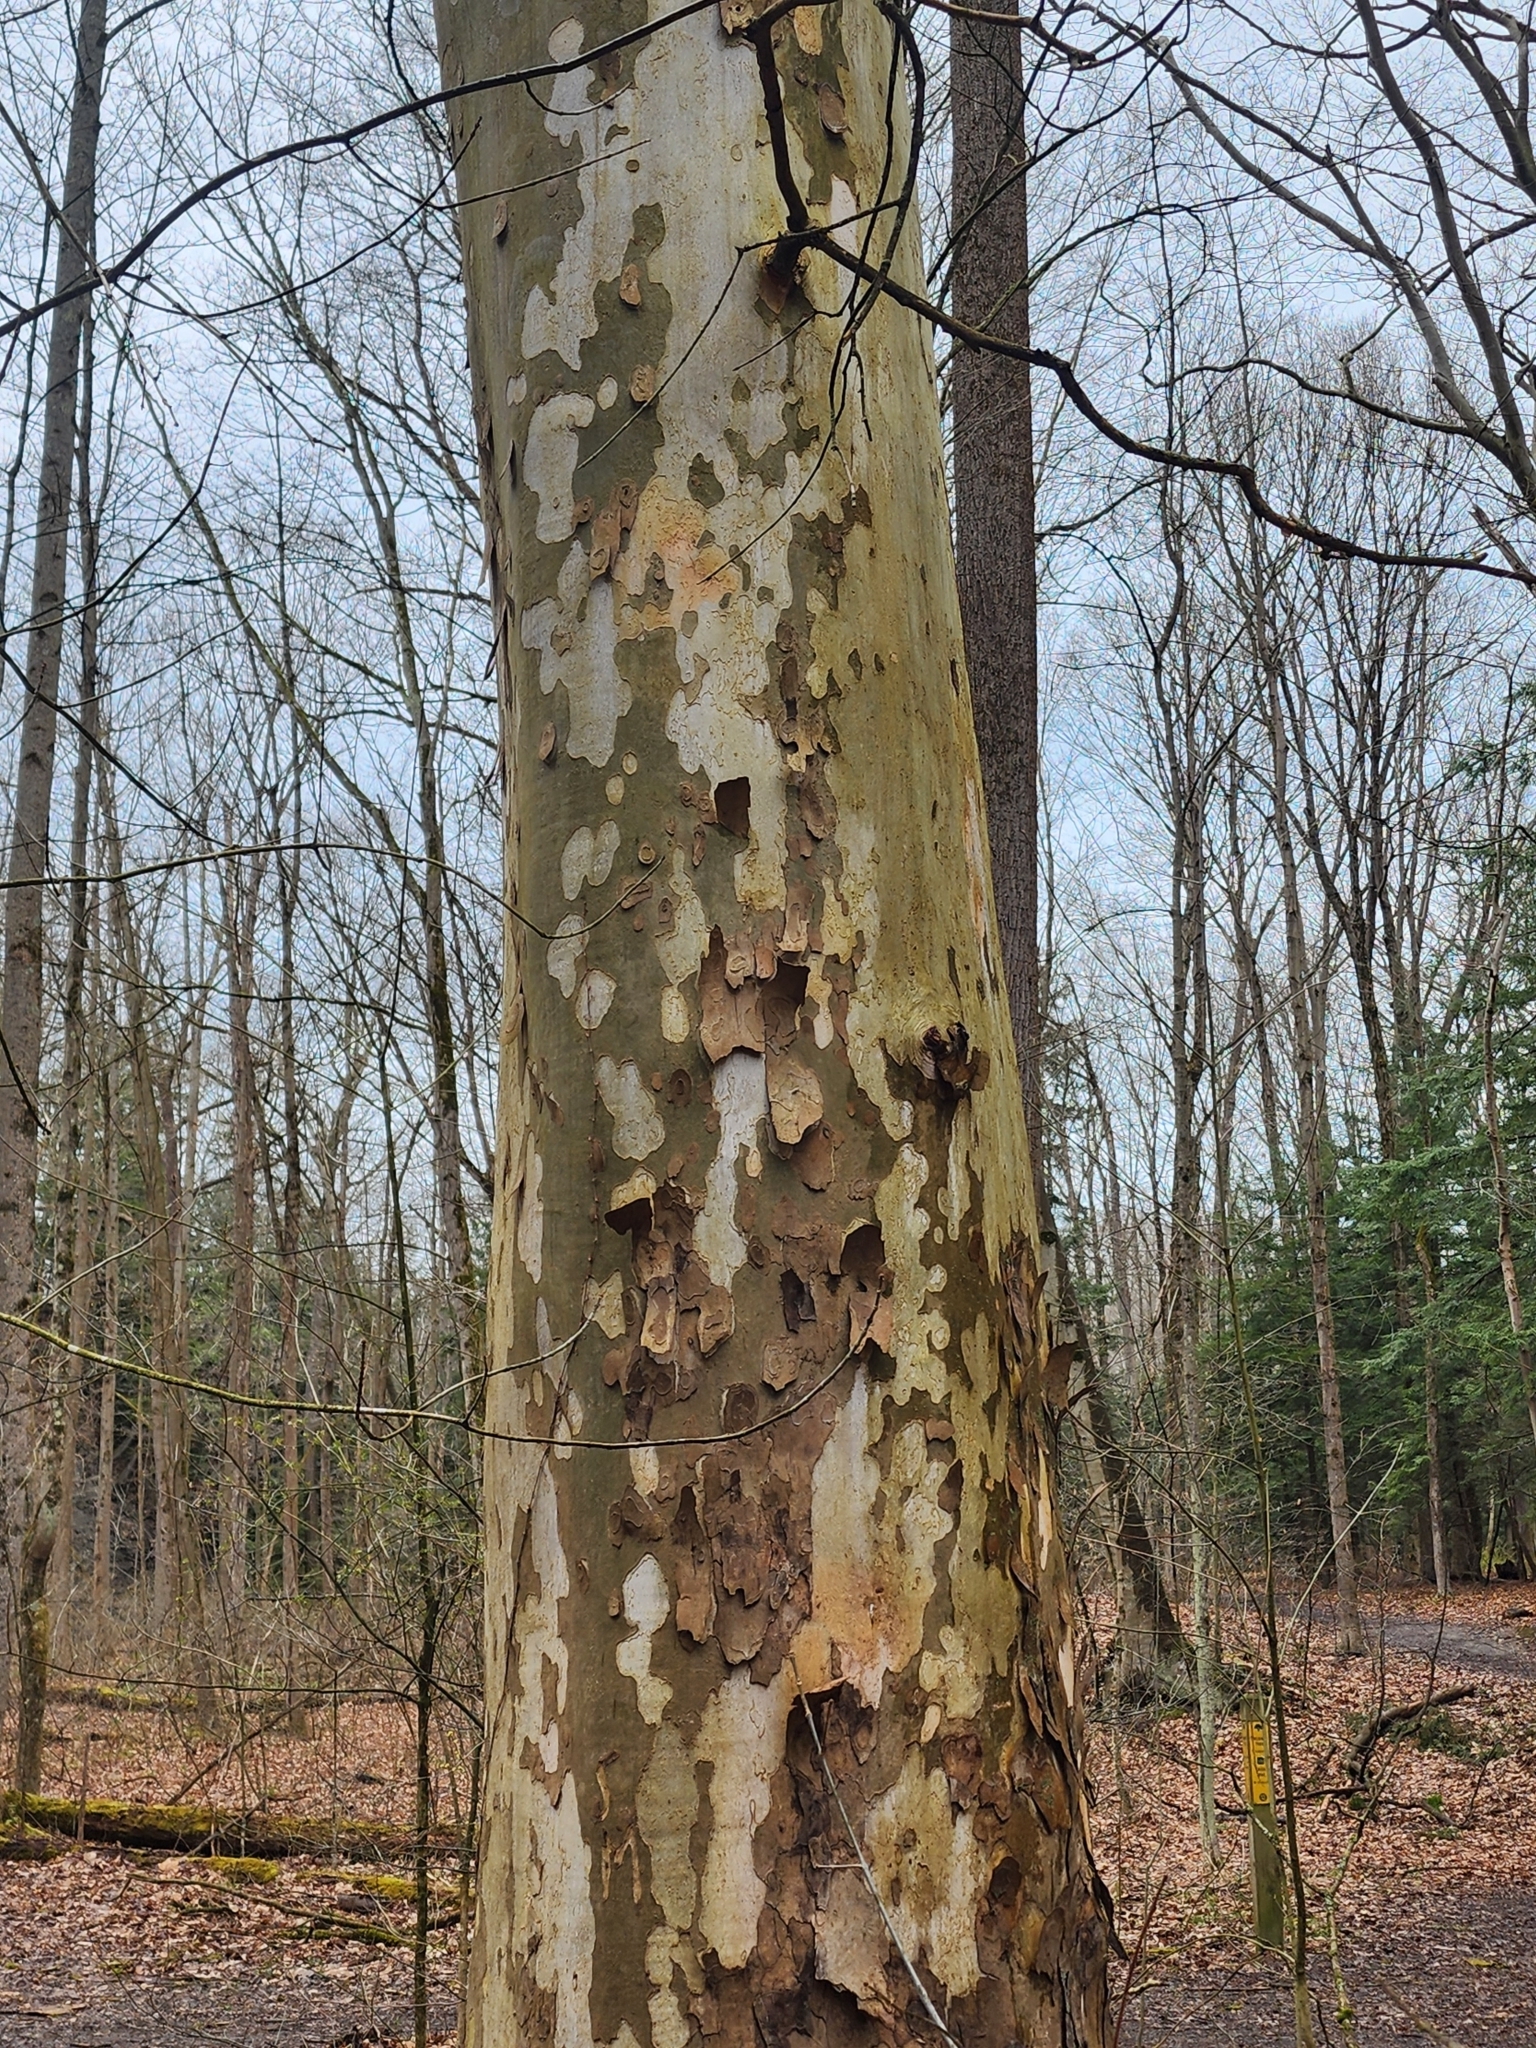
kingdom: Plantae
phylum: Tracheophyta
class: Magnoliopsida
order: Proteales
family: Platanaceae
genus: Platanus
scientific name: Platanus occidentalis
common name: American sycamore
